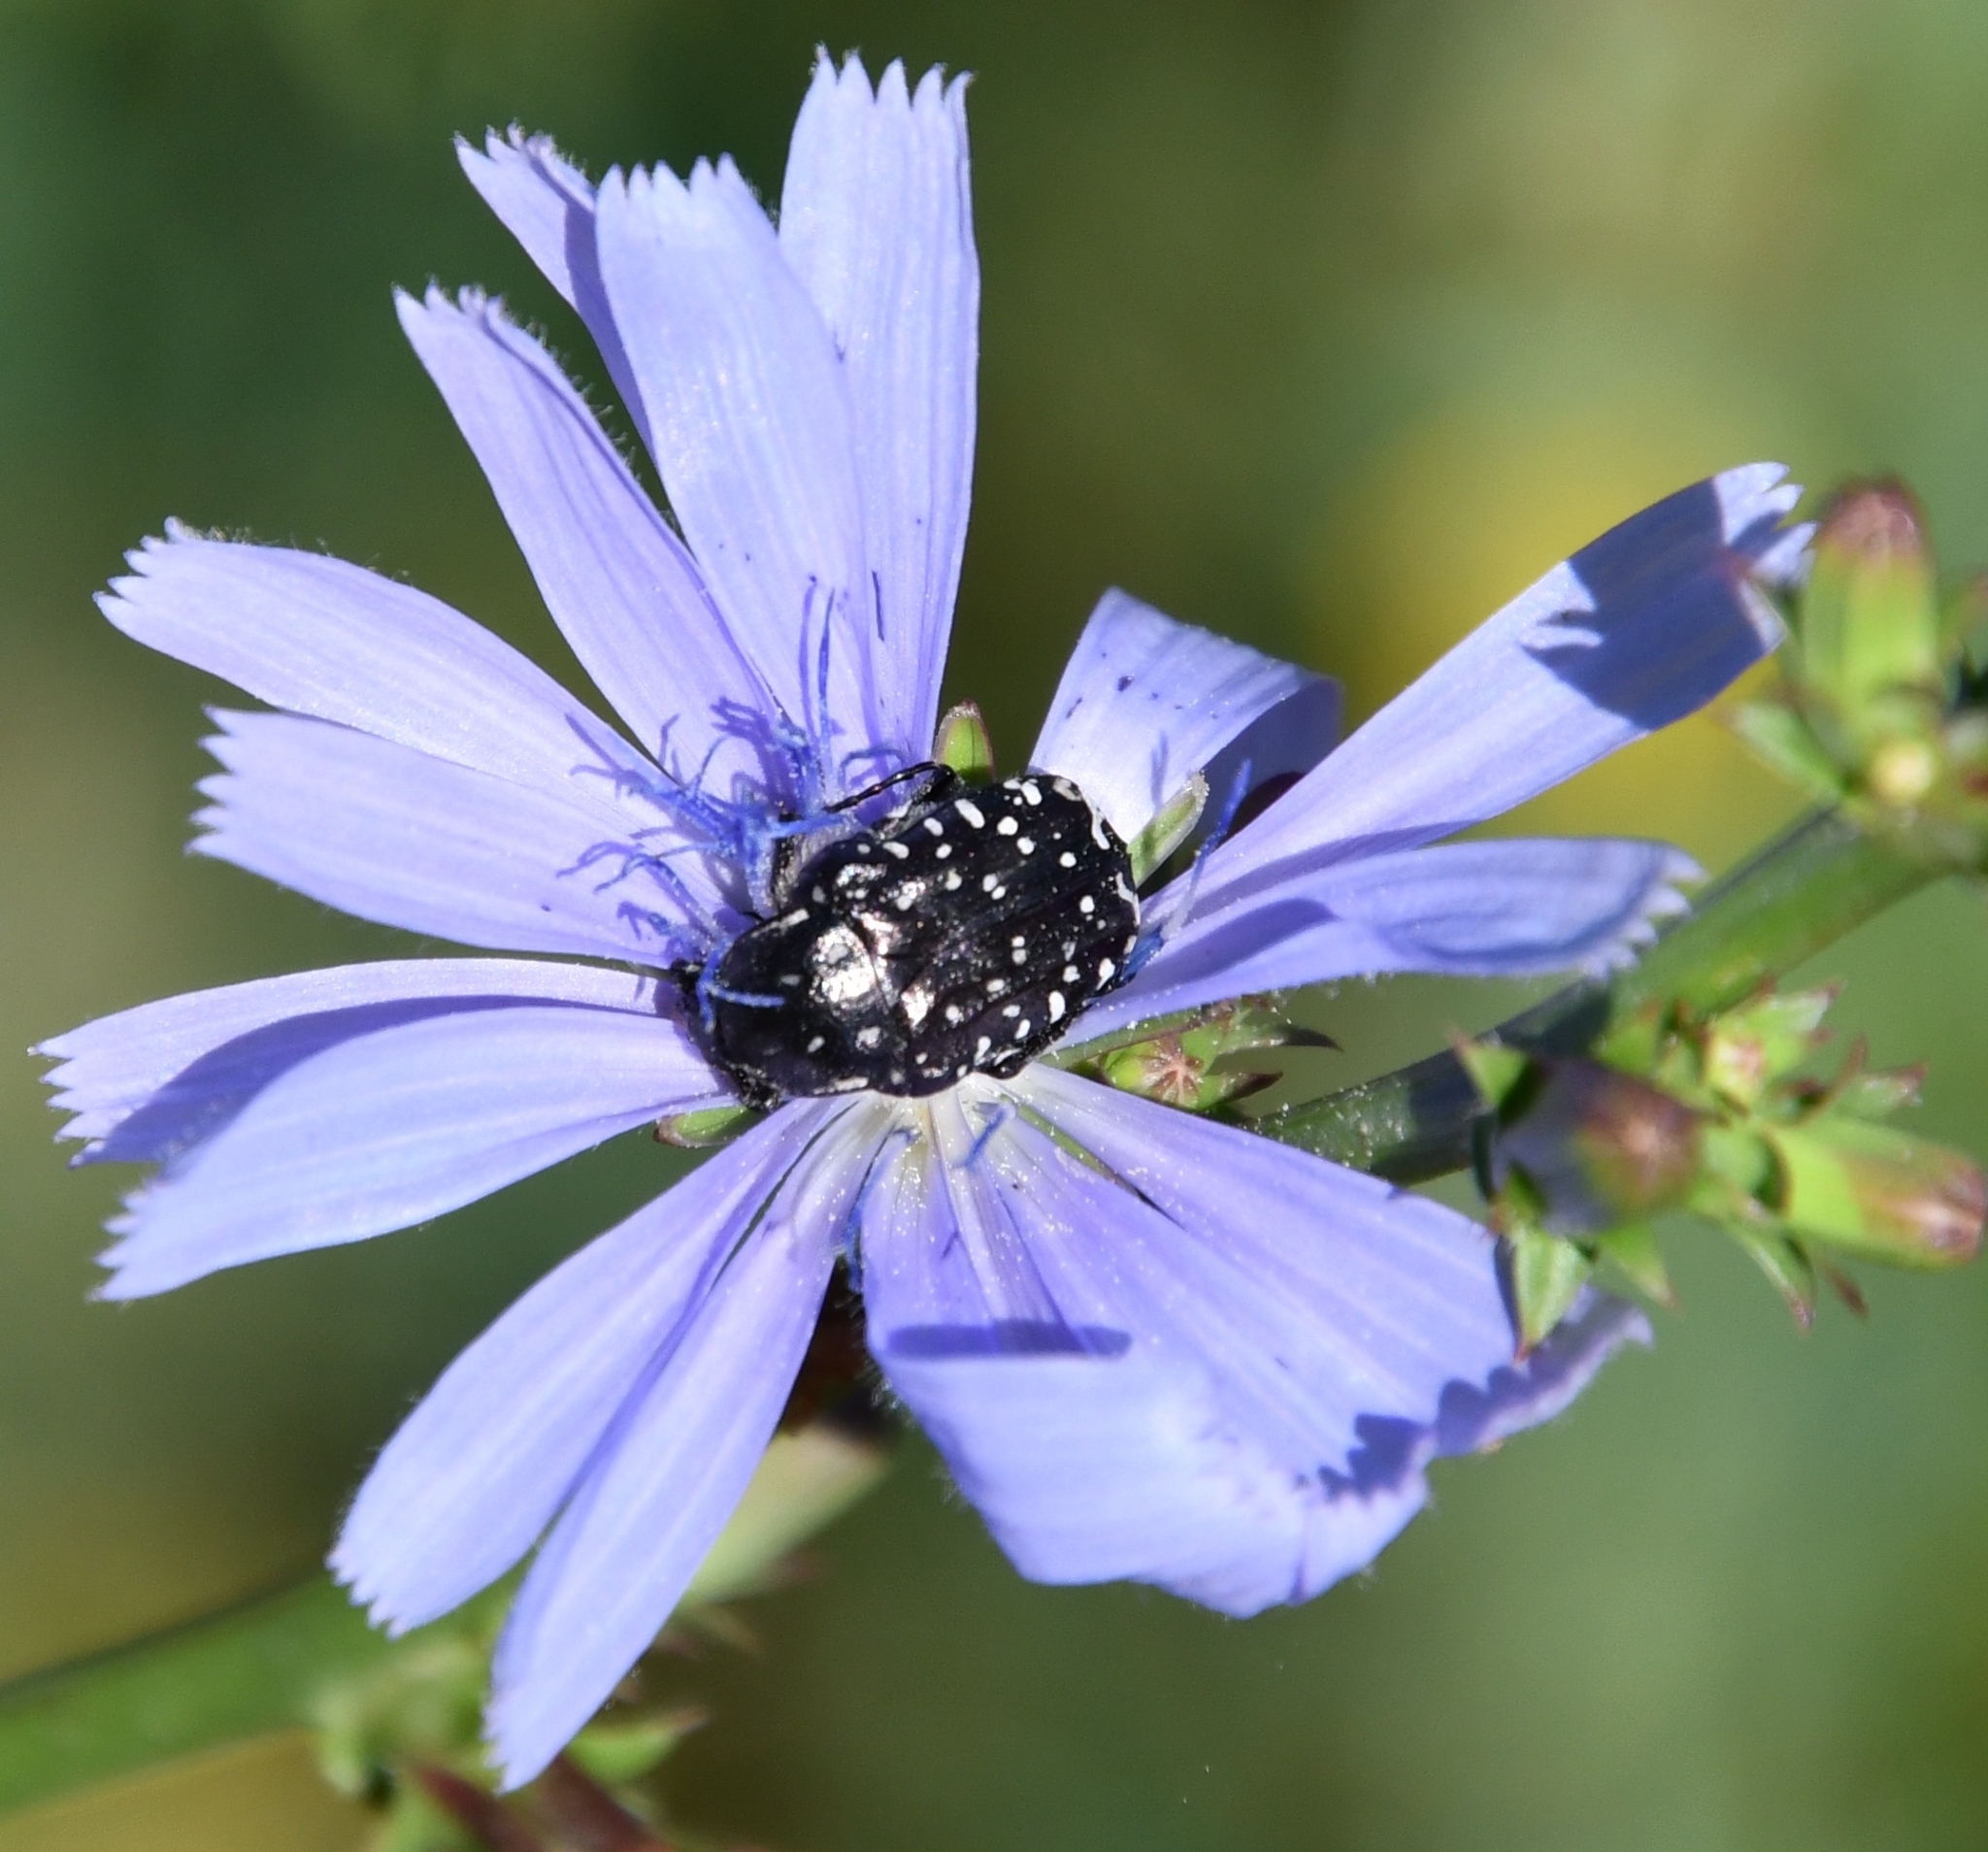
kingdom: Animalia
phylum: Arthropoda
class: Insecta
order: Coleoptera
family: Scarabaeidae
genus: Oxythyrea
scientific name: Oxythyrea funesta
